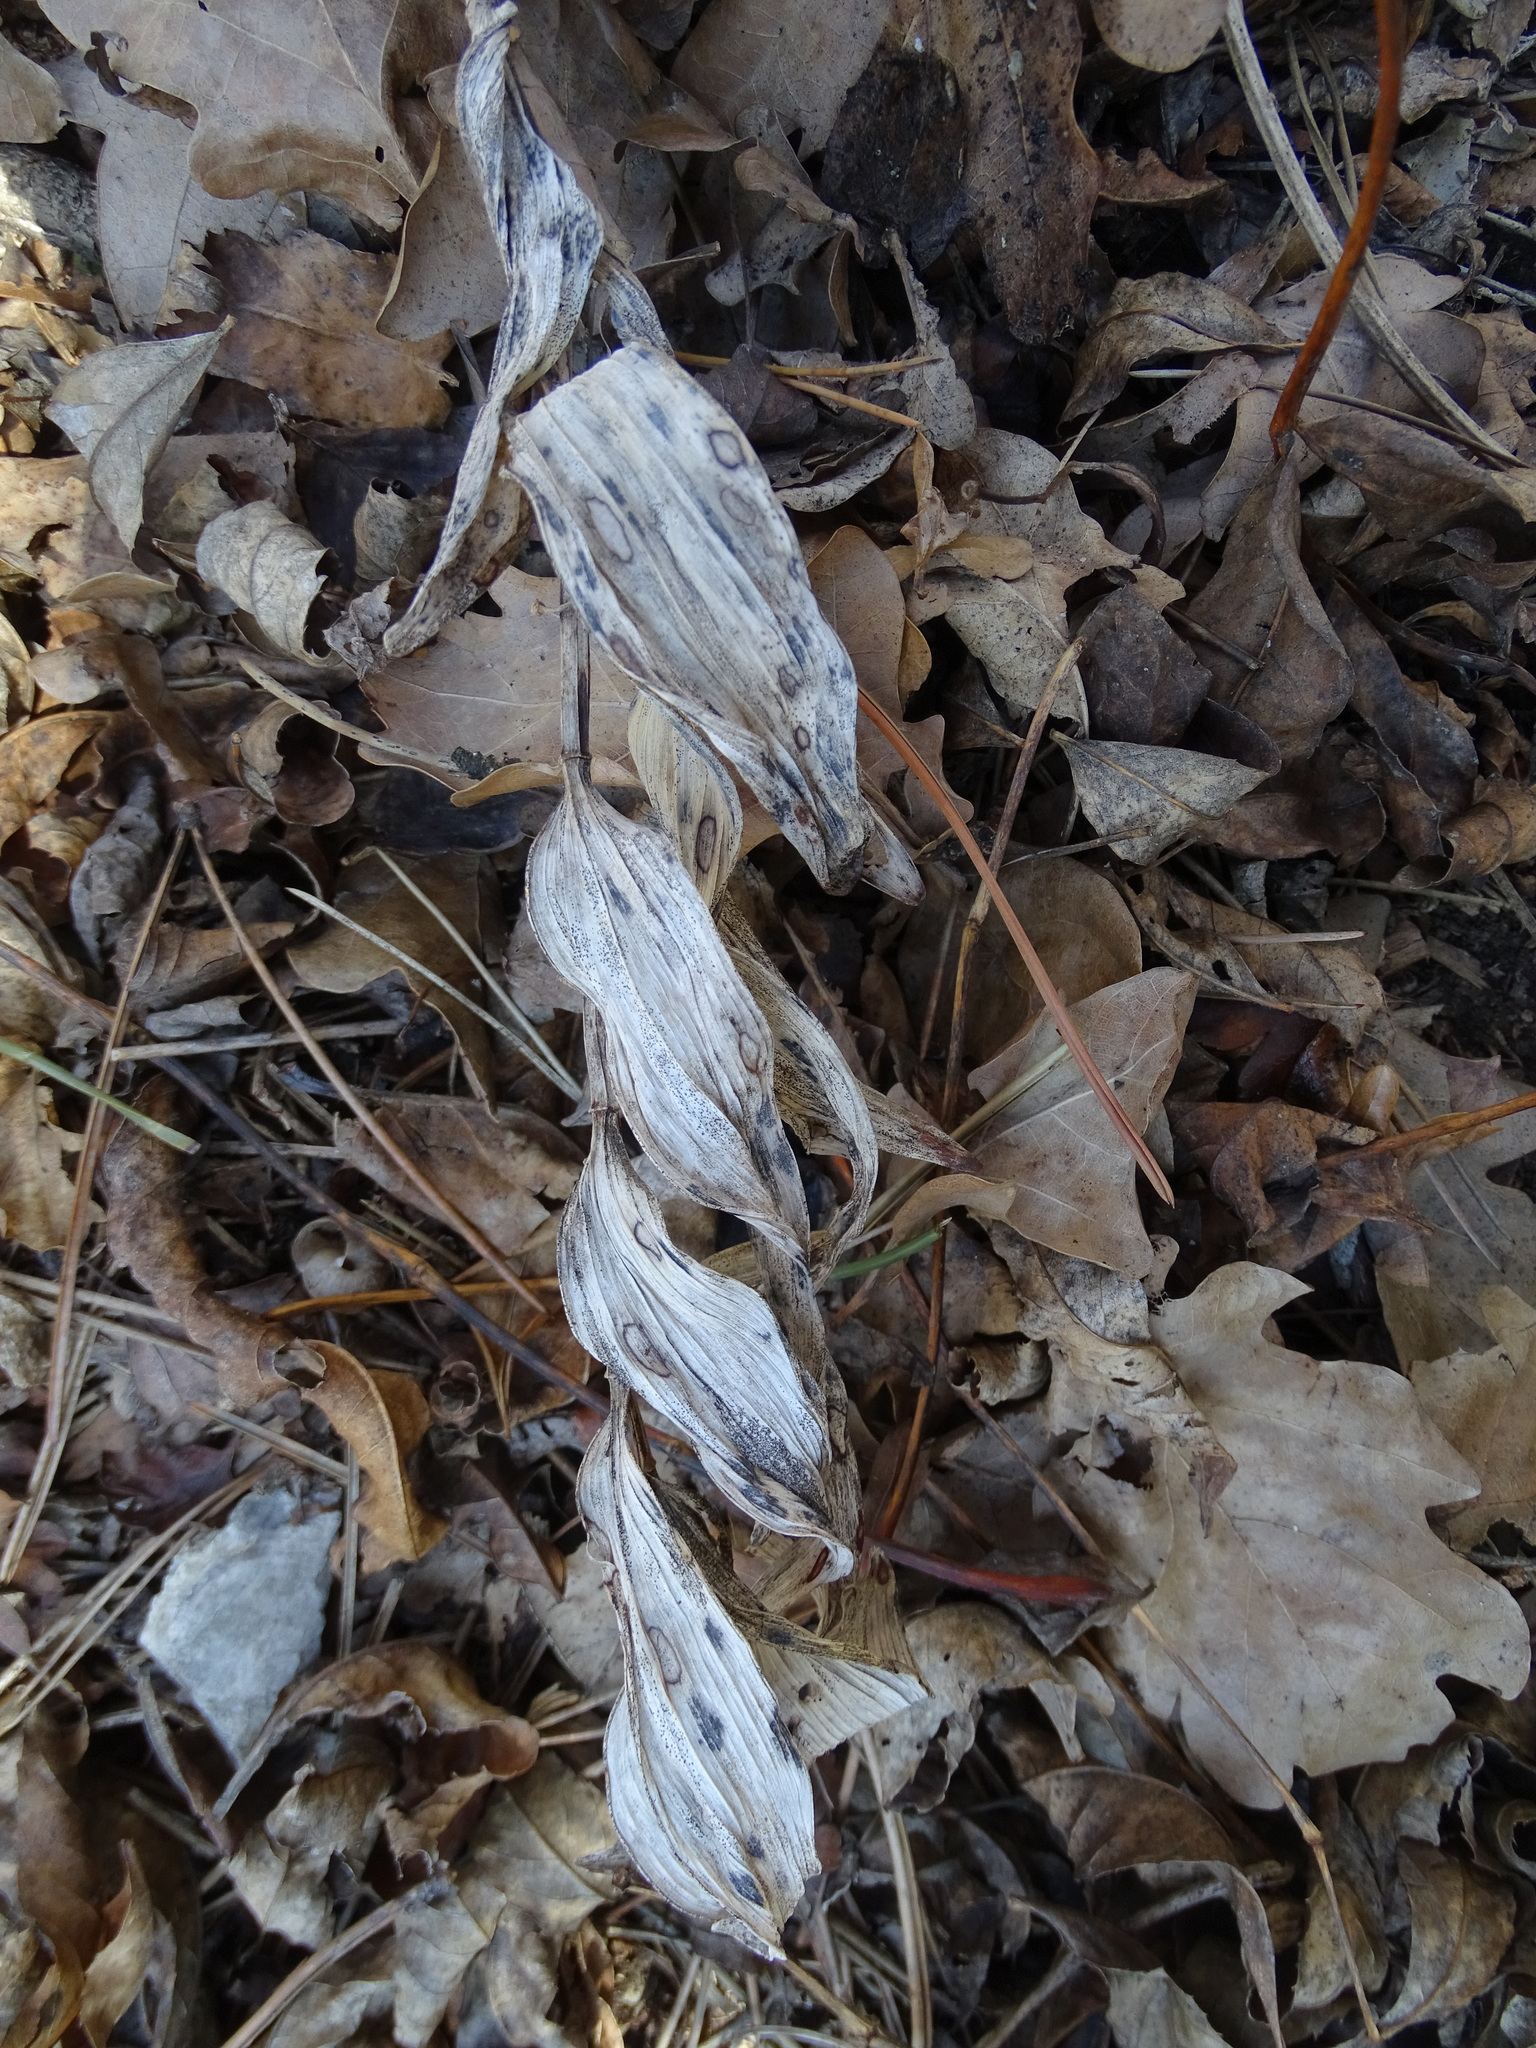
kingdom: Plantae
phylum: Tracheophyta
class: Liliopsida
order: Asparagales
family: Asparagaceae
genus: Polygonatum
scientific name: Polygonatum odoratum
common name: Angular solomon's-seal
